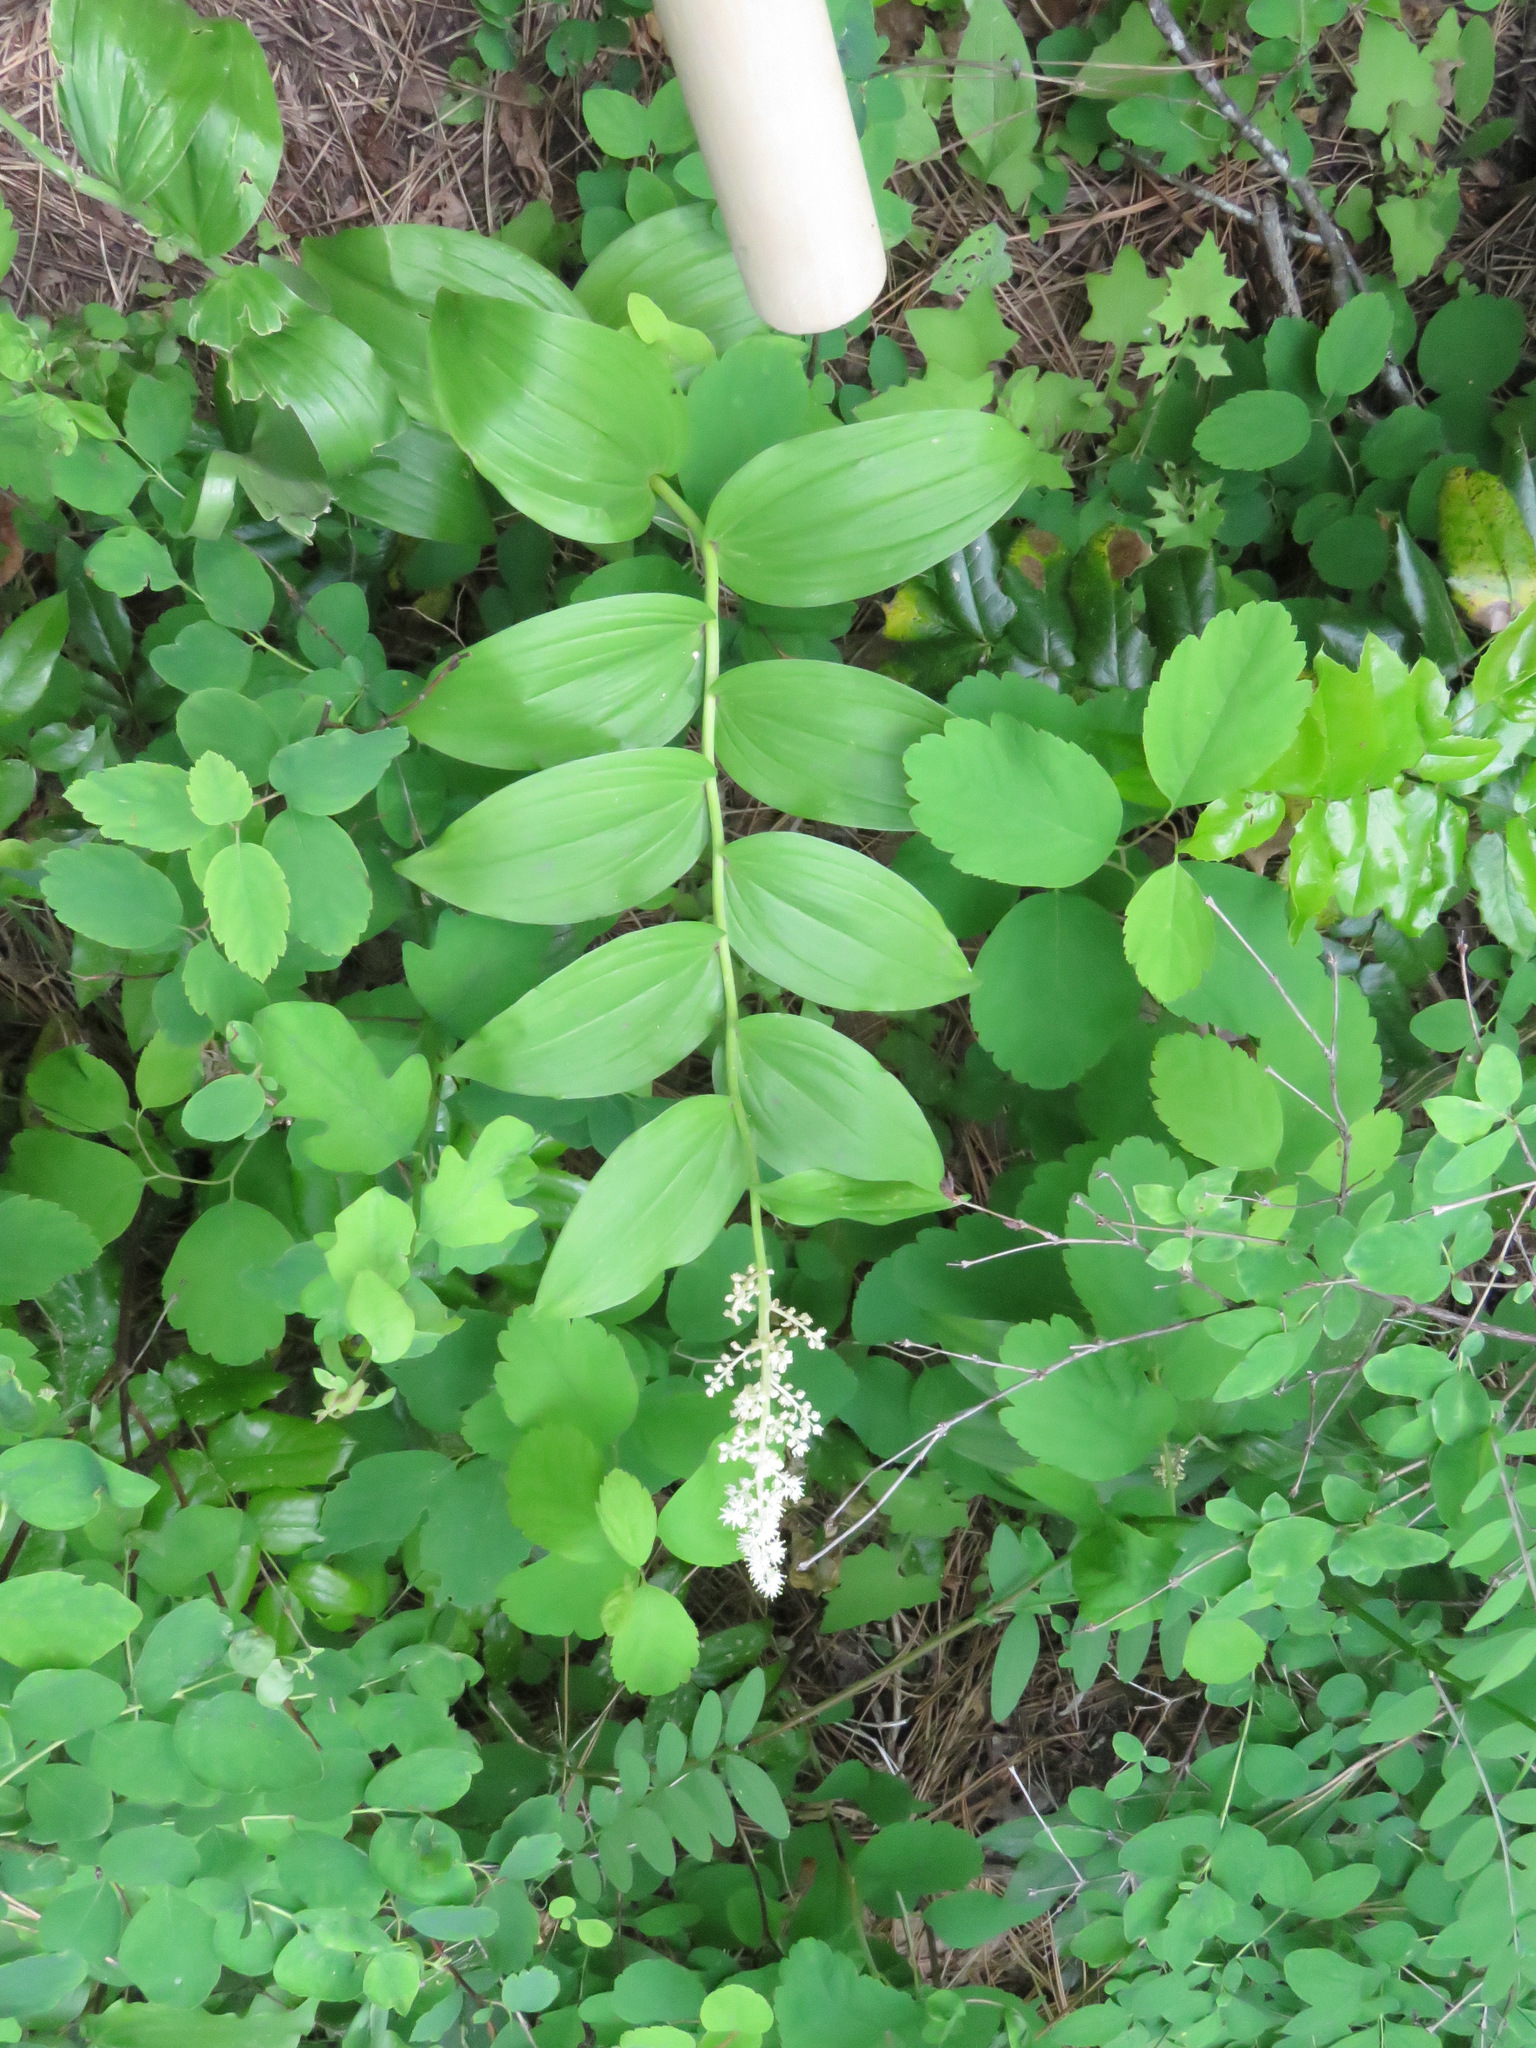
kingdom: Plantae
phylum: Tracheophyta
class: Liliopsida
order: Asparagales
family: Asparagaceae
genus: Maianthemum
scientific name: Maianthemum racemosum
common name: False spikenard
